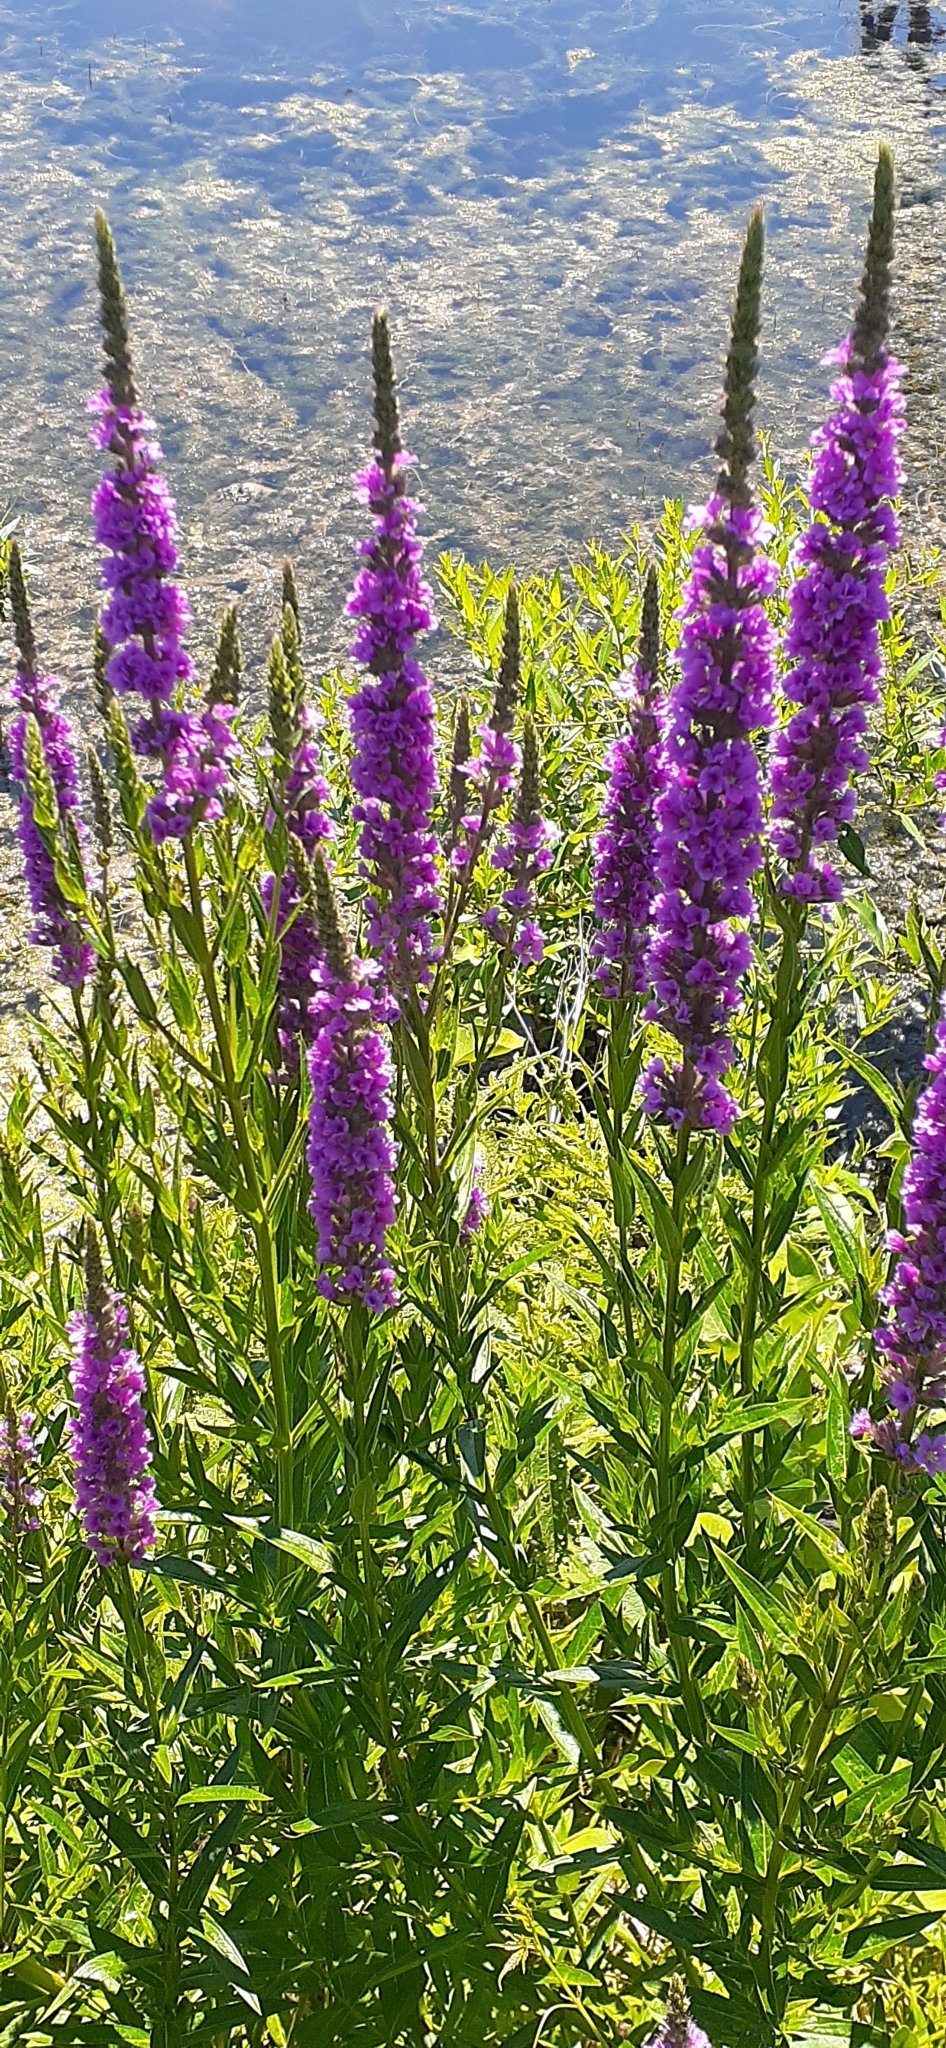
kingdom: Plantae
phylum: Tracheophyta
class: Magnoliopsida
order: Myrtales
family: Lythraceae
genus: Lythrum
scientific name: Lythrum salicaria
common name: Purple loosestrife
